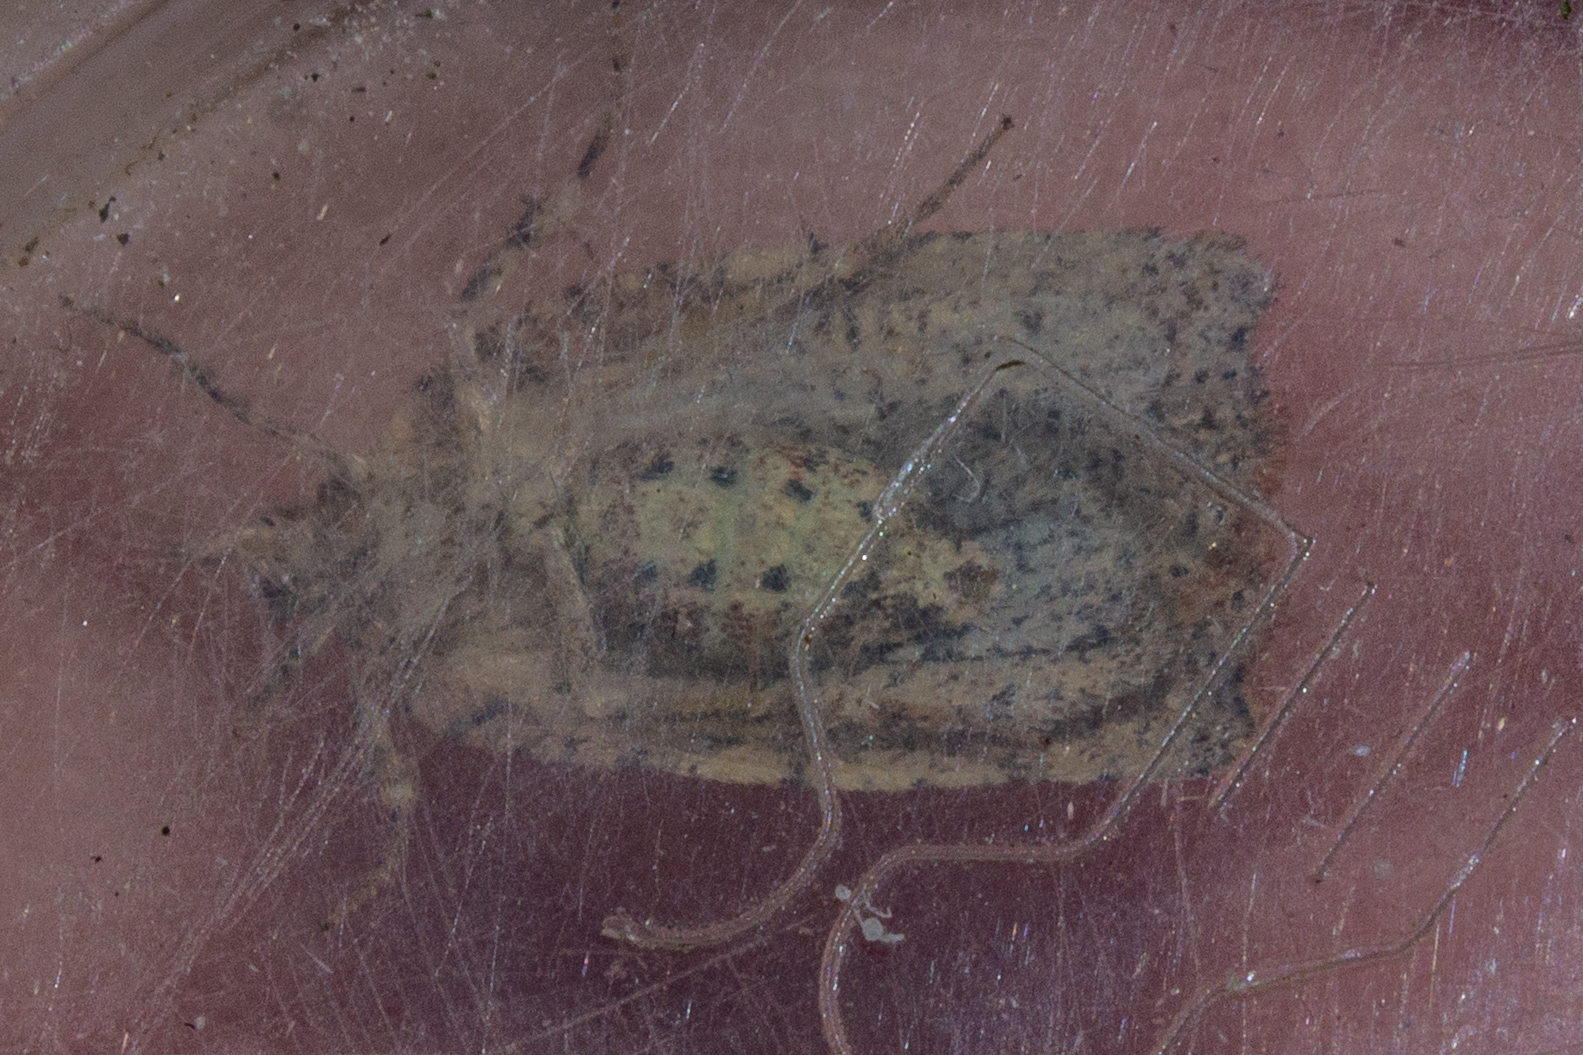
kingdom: Animalia
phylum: Arthropoda
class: Insecta
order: Lepidoptera
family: Tortricidae
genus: Ctenopseustis
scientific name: Ctenopseustis obliquana
